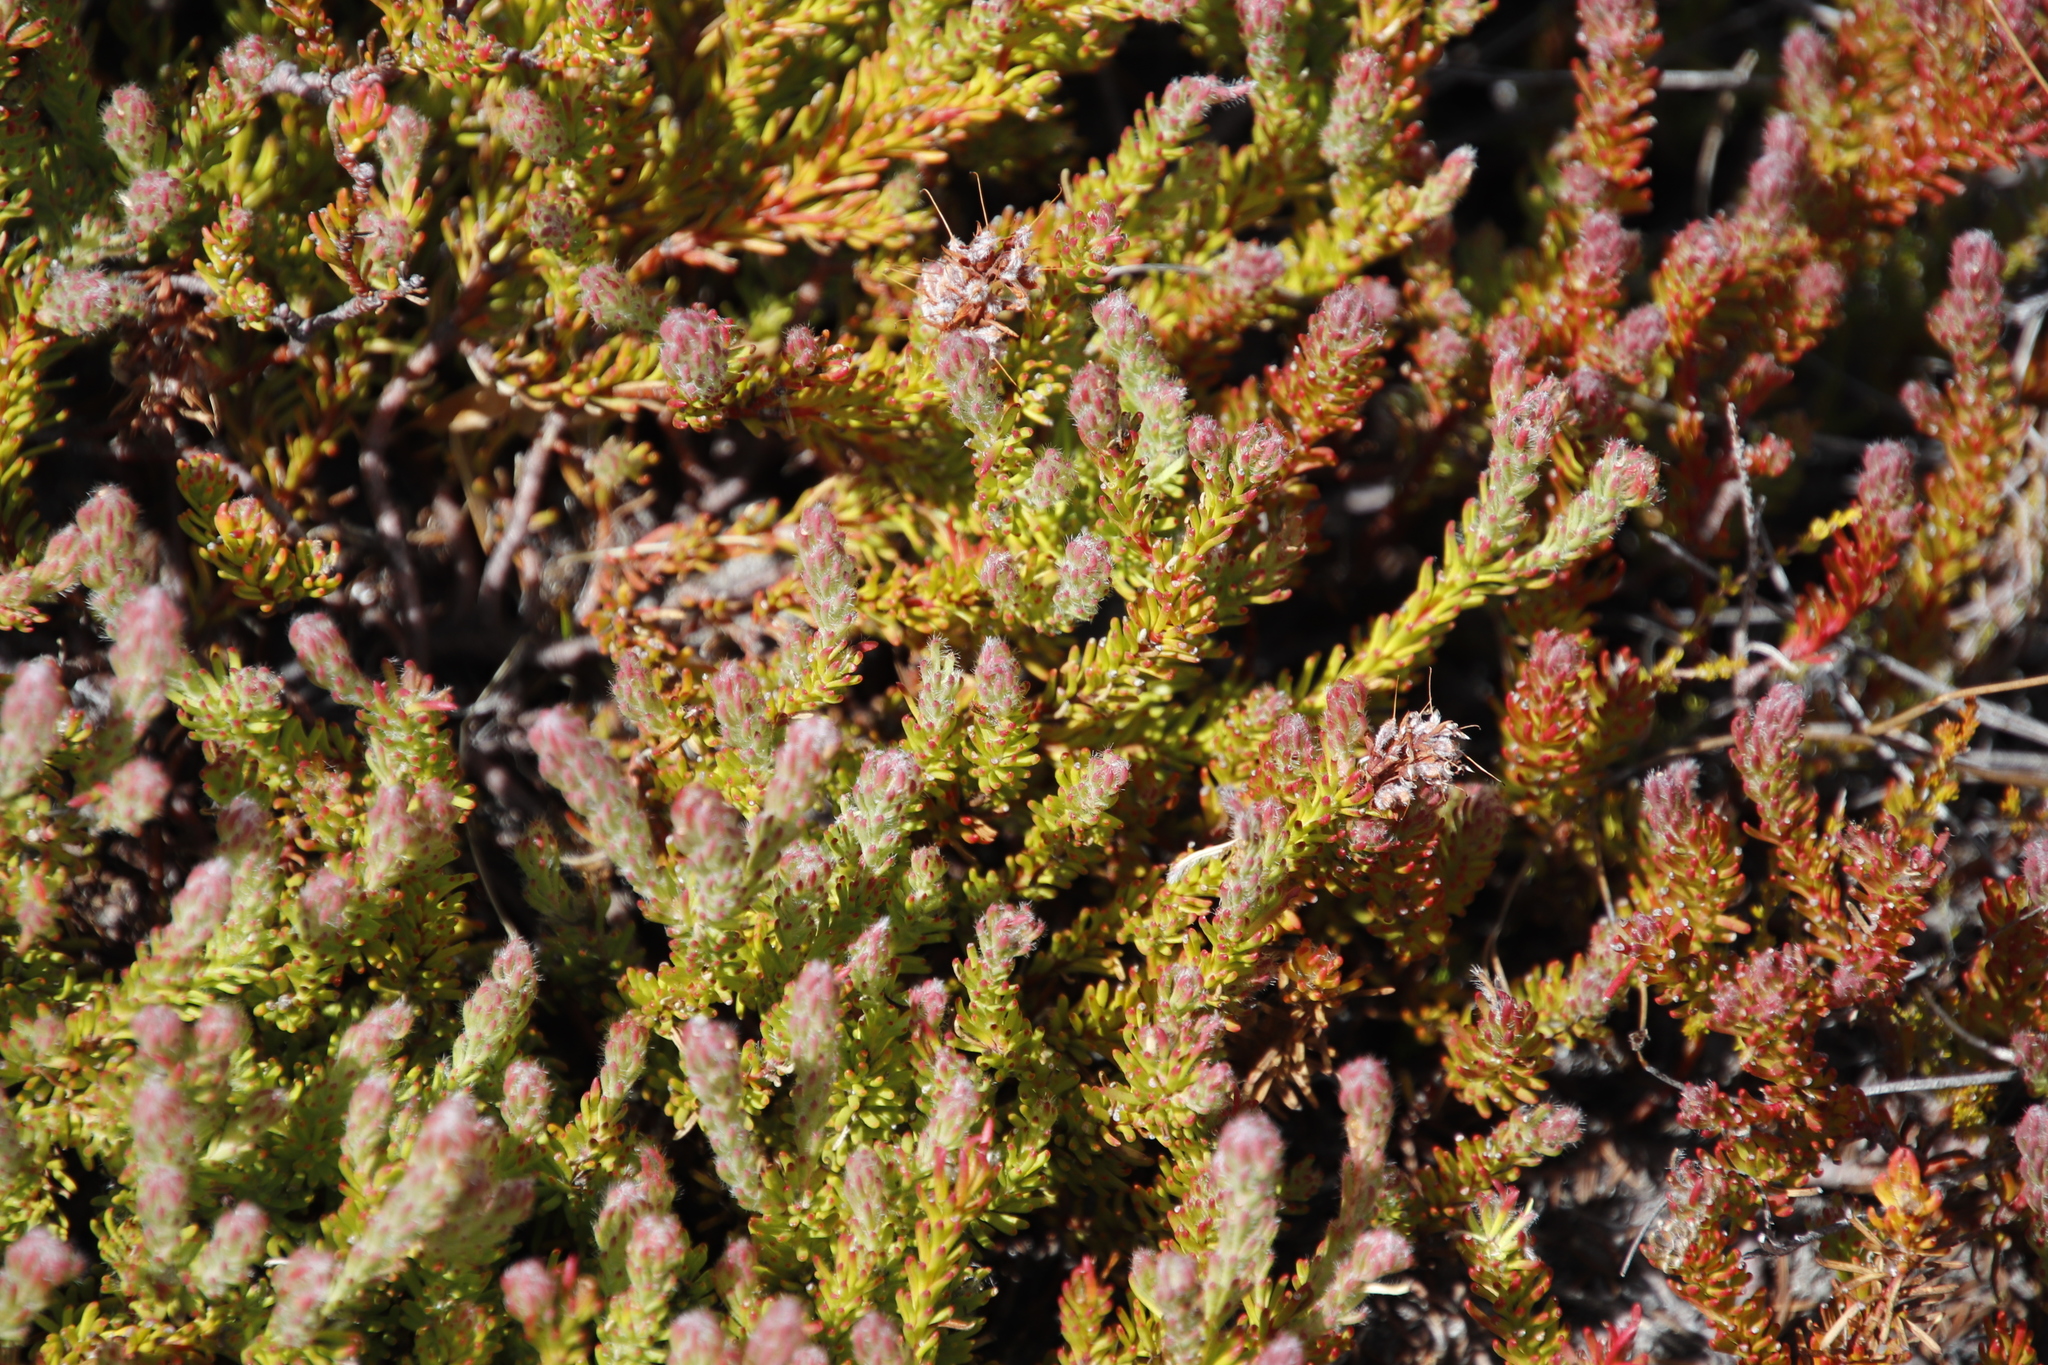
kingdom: Plantae
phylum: Tracheophyta
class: Magnoliopsida
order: Proteales
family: Proteaceae
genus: Spatalla
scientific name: Spatalla confusa
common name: Long-tube spoon
